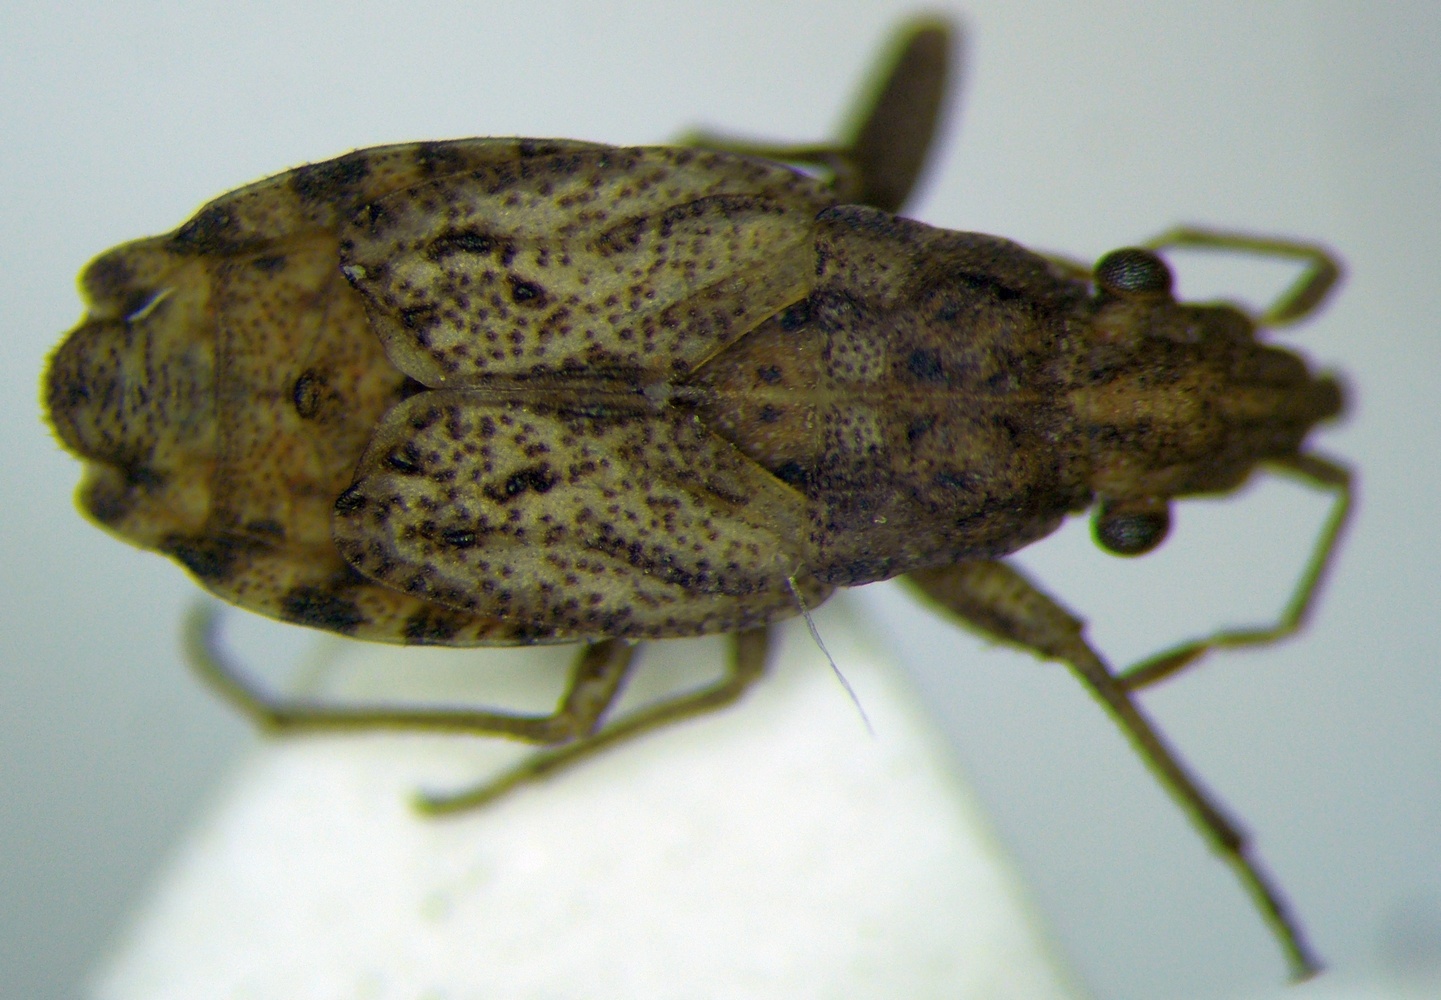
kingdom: Animalia
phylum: Arthropoda
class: Insecta
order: Hemiptera
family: Rhyparochromidae
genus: Diomphalus
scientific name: Diomphalus hispidulus
